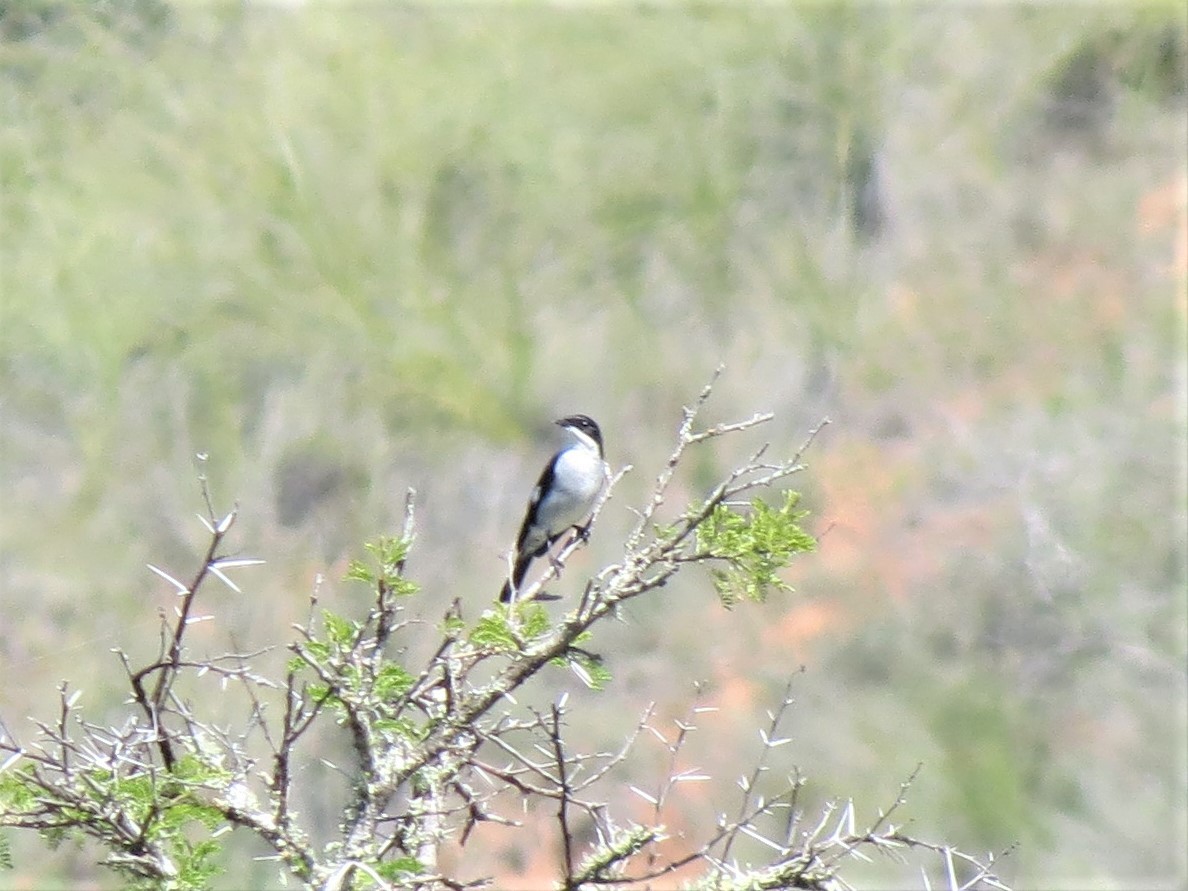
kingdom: Animalia
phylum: Chordata
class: Aves
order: Passeriformes
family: Muscicapidae
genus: Sigelus
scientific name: Sigelus silens
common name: Fiscal flycatcher
